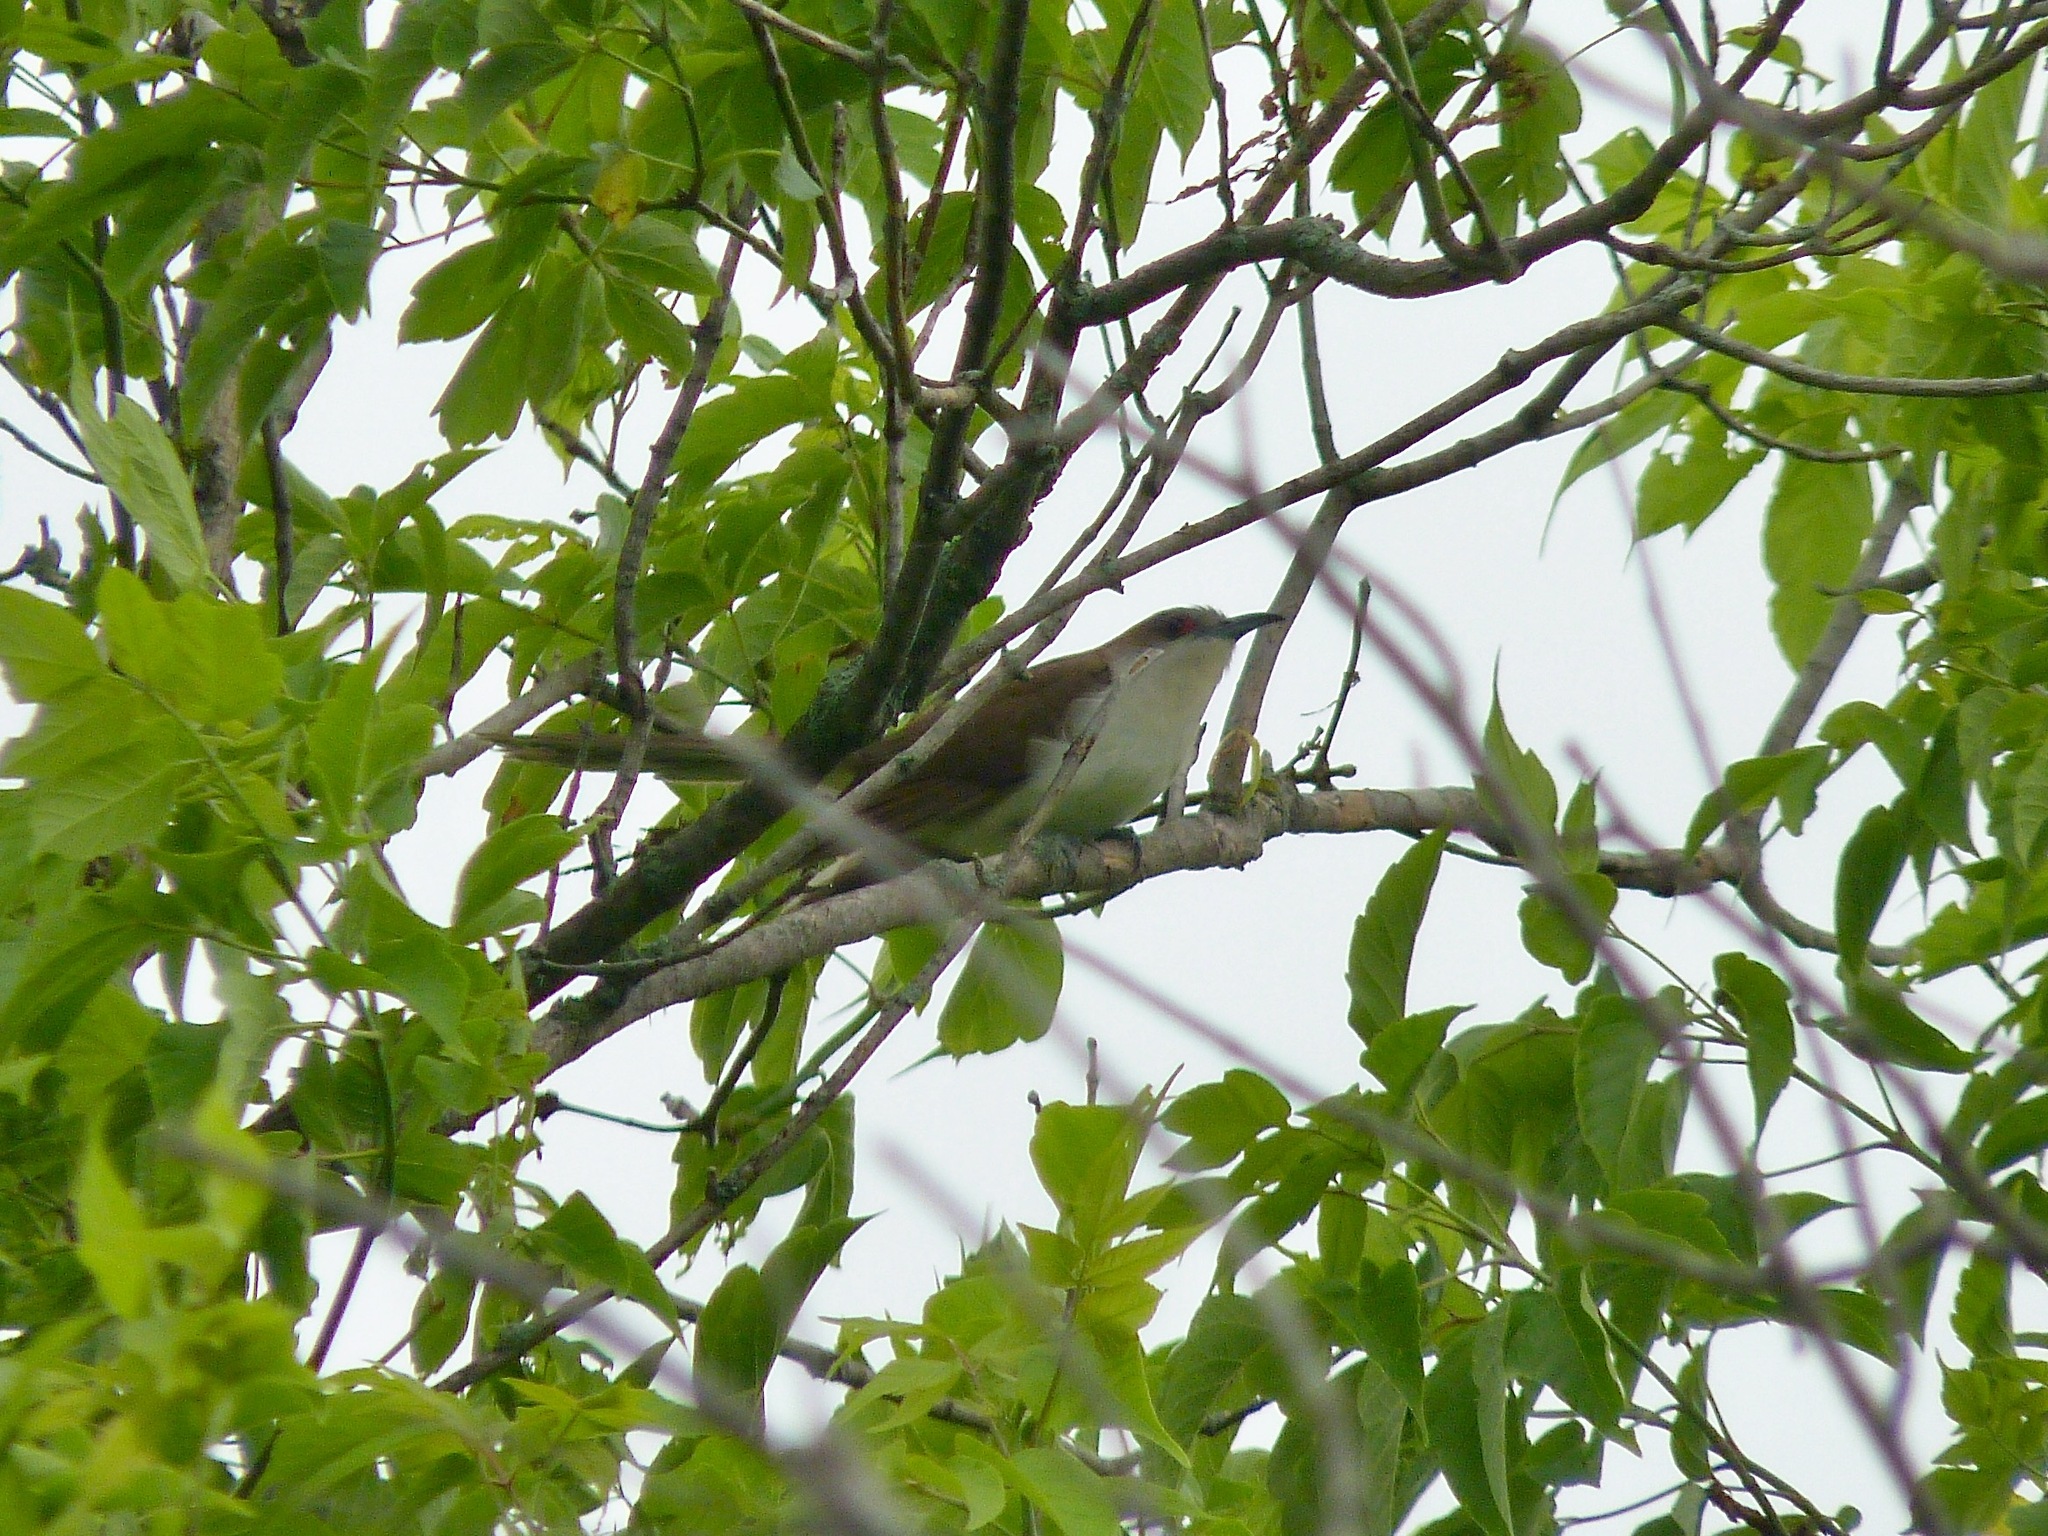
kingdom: Animalia
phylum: Chordata
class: Aves
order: Cuculiformes
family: Cuculidae
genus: Coccyzus
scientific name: Coccyzus erythropthalmus
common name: Black-billed cuckoo
